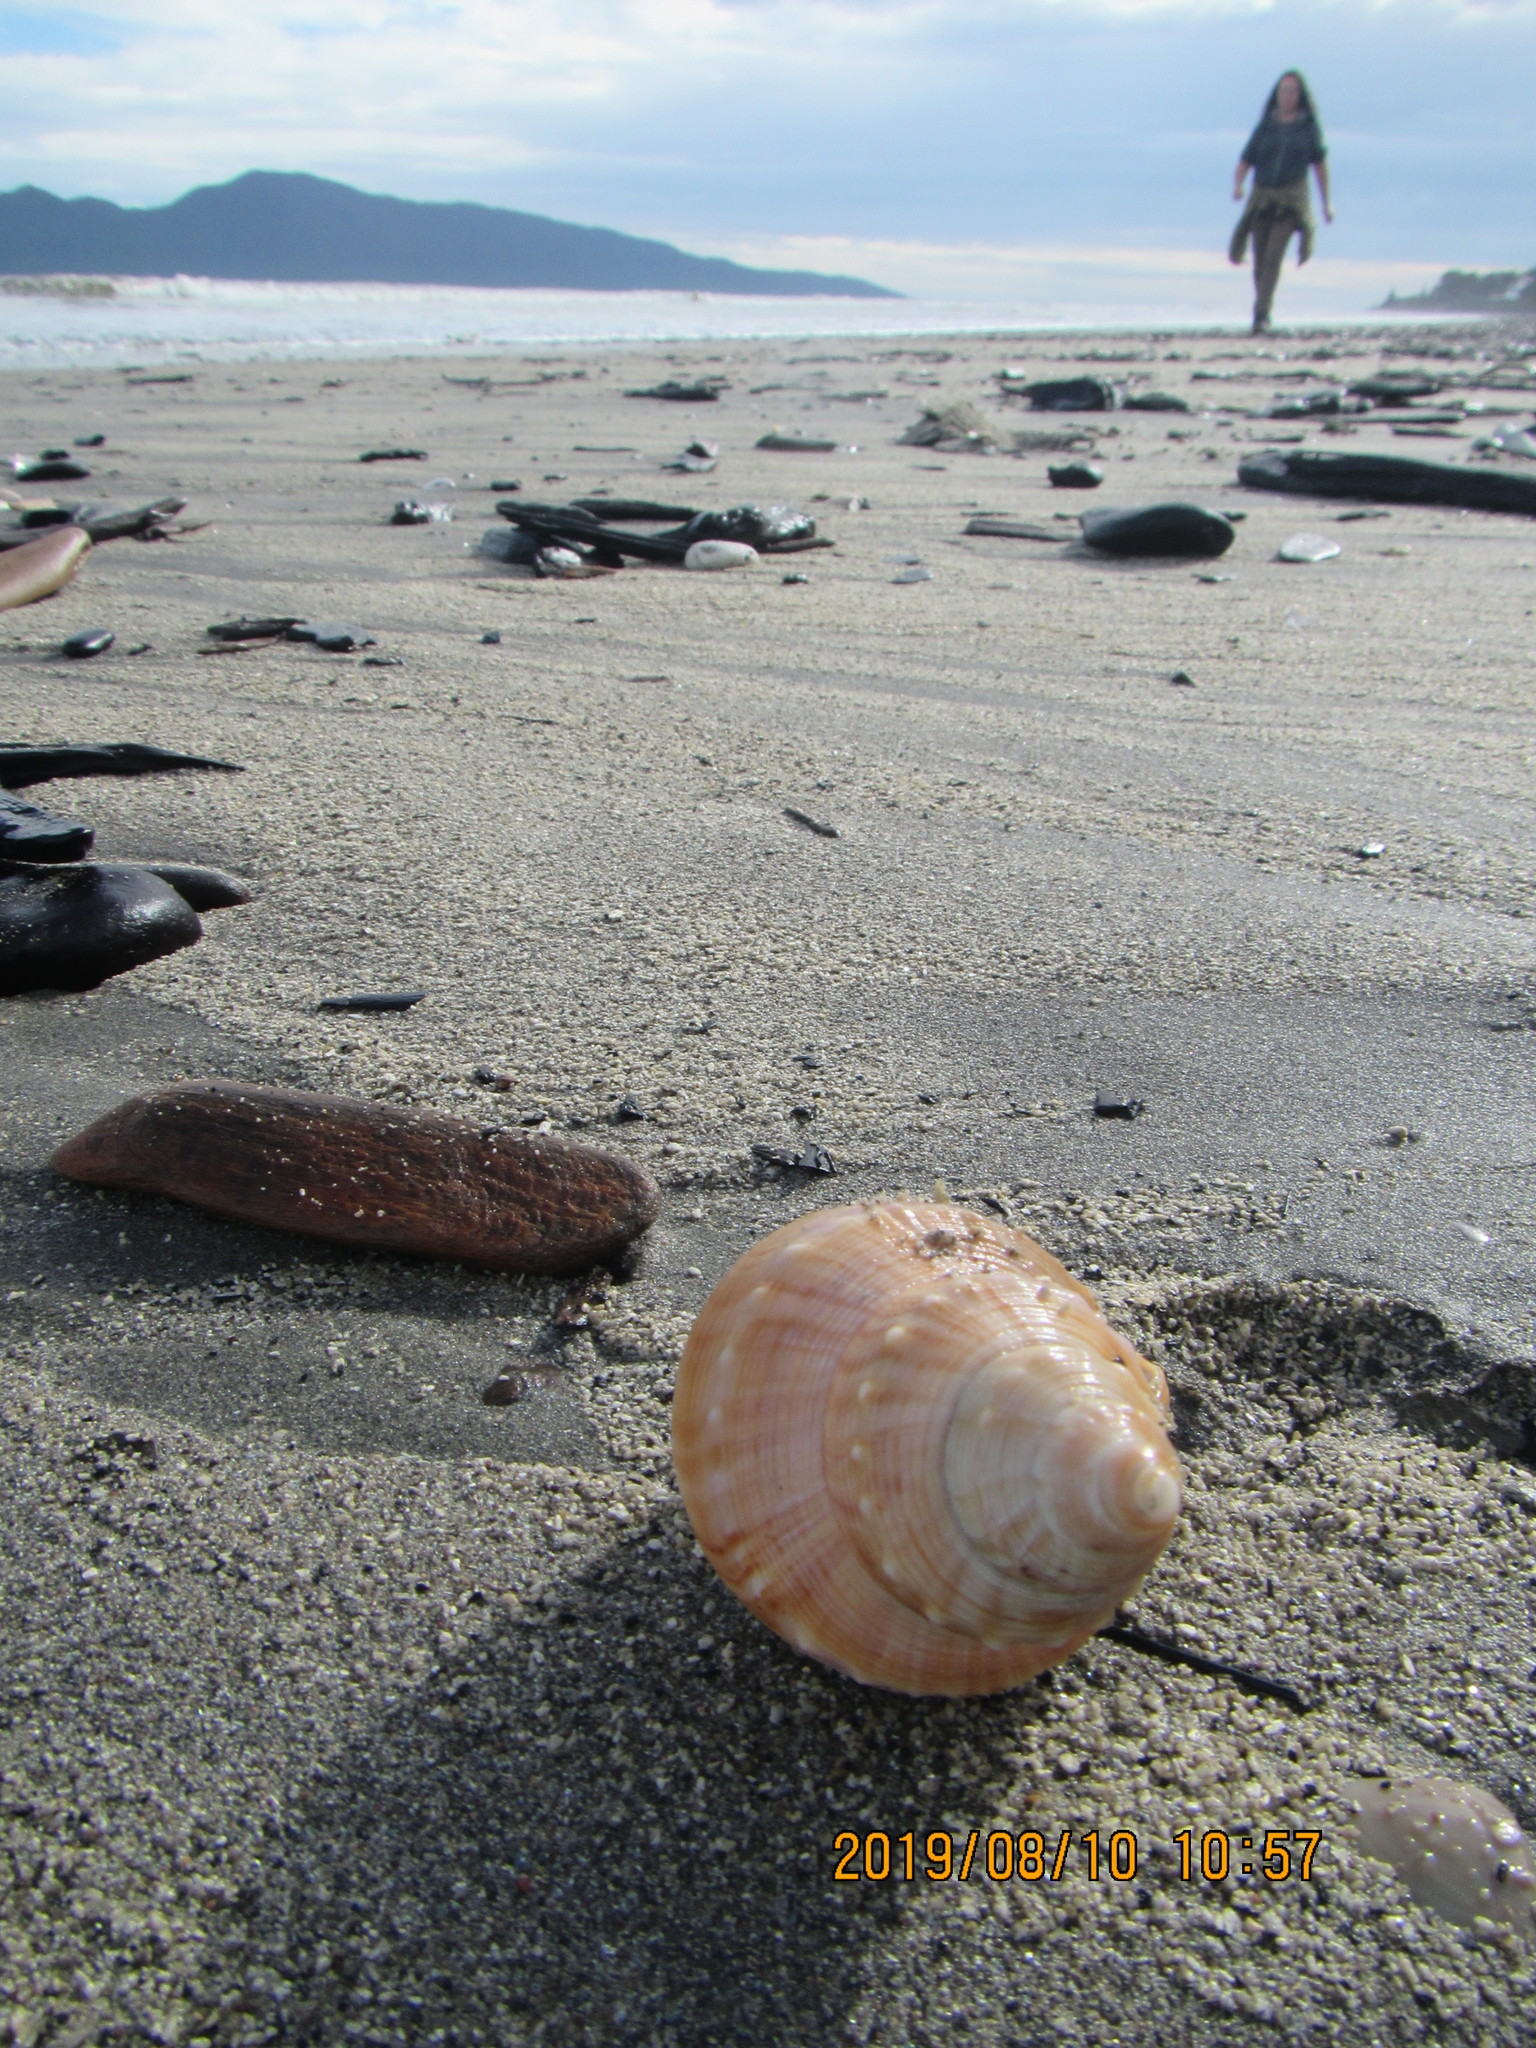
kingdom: Animalia
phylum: Mollusca
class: Gastropoda
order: Littorinimorpha
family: Struthiolariidae
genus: Struthiolaria
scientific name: Struthiolaria papulosa
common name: Large ostrich foot
